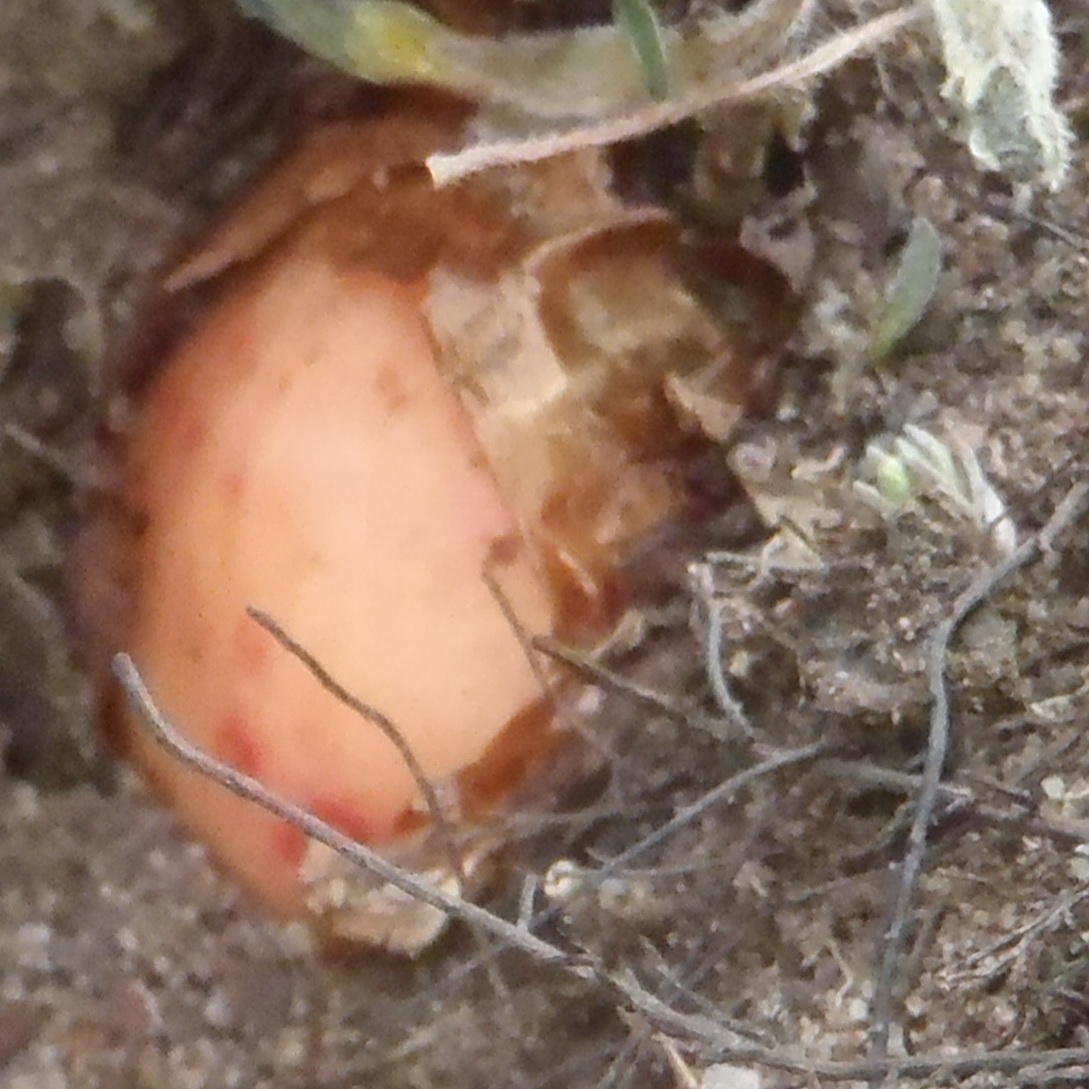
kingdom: Plantae
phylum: Tracheophyta
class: Magnoliopsida
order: Oxalidales
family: Oxalidaceae
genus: Oxalis
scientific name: Oxalis hirta
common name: Tropical woodsorrel
